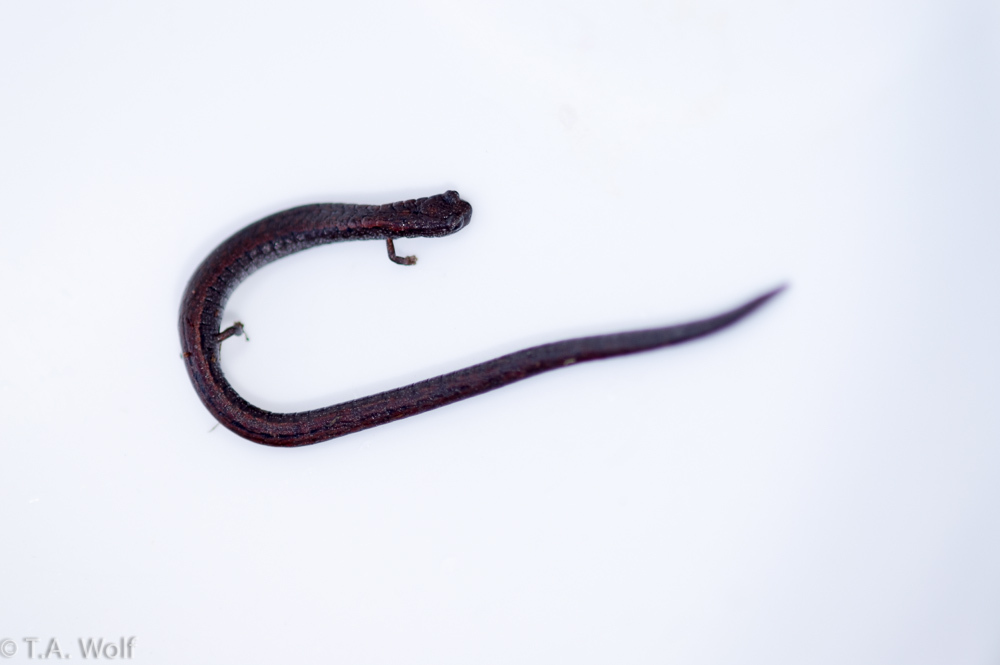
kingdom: Animalia
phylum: Chordata
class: Amphibia
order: Caudata
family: Plethodontidae
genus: Batrachoseps
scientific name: Batrachoseps attenuatus
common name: California slender salamander
